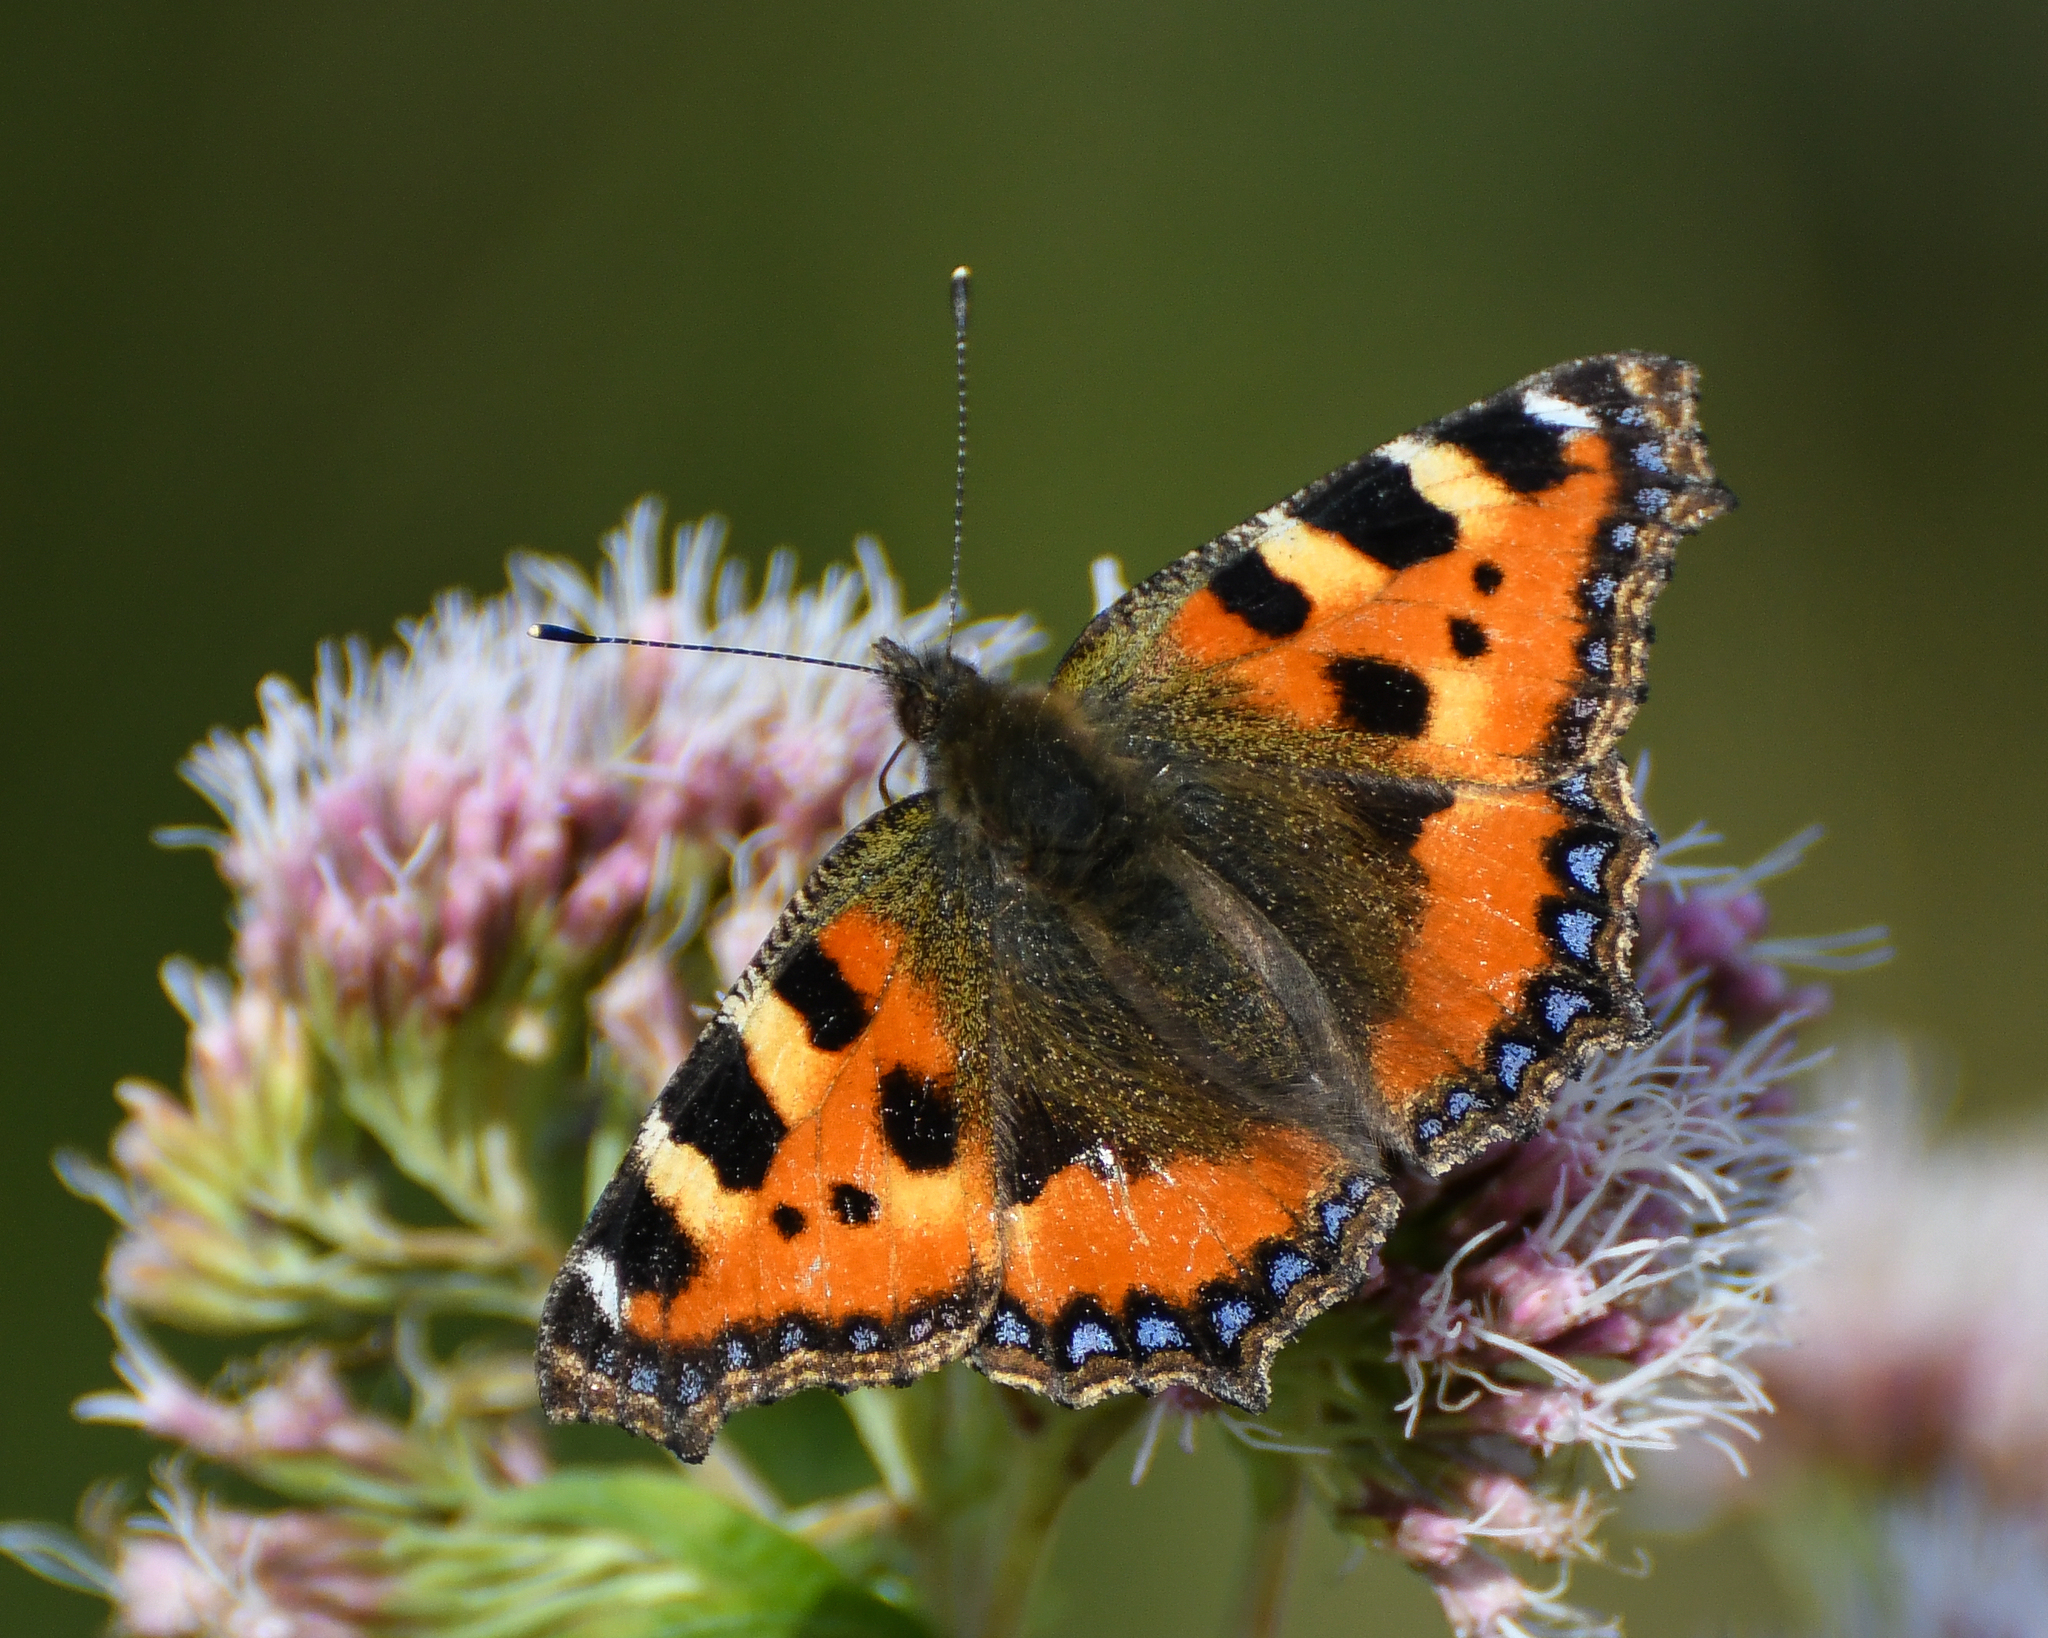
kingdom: Animalia
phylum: Arthropoda
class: Insecta
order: Lepidoptera
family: Nymphalidae
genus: Aglais
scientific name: Aglais urticae
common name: Small tortoiseshell
